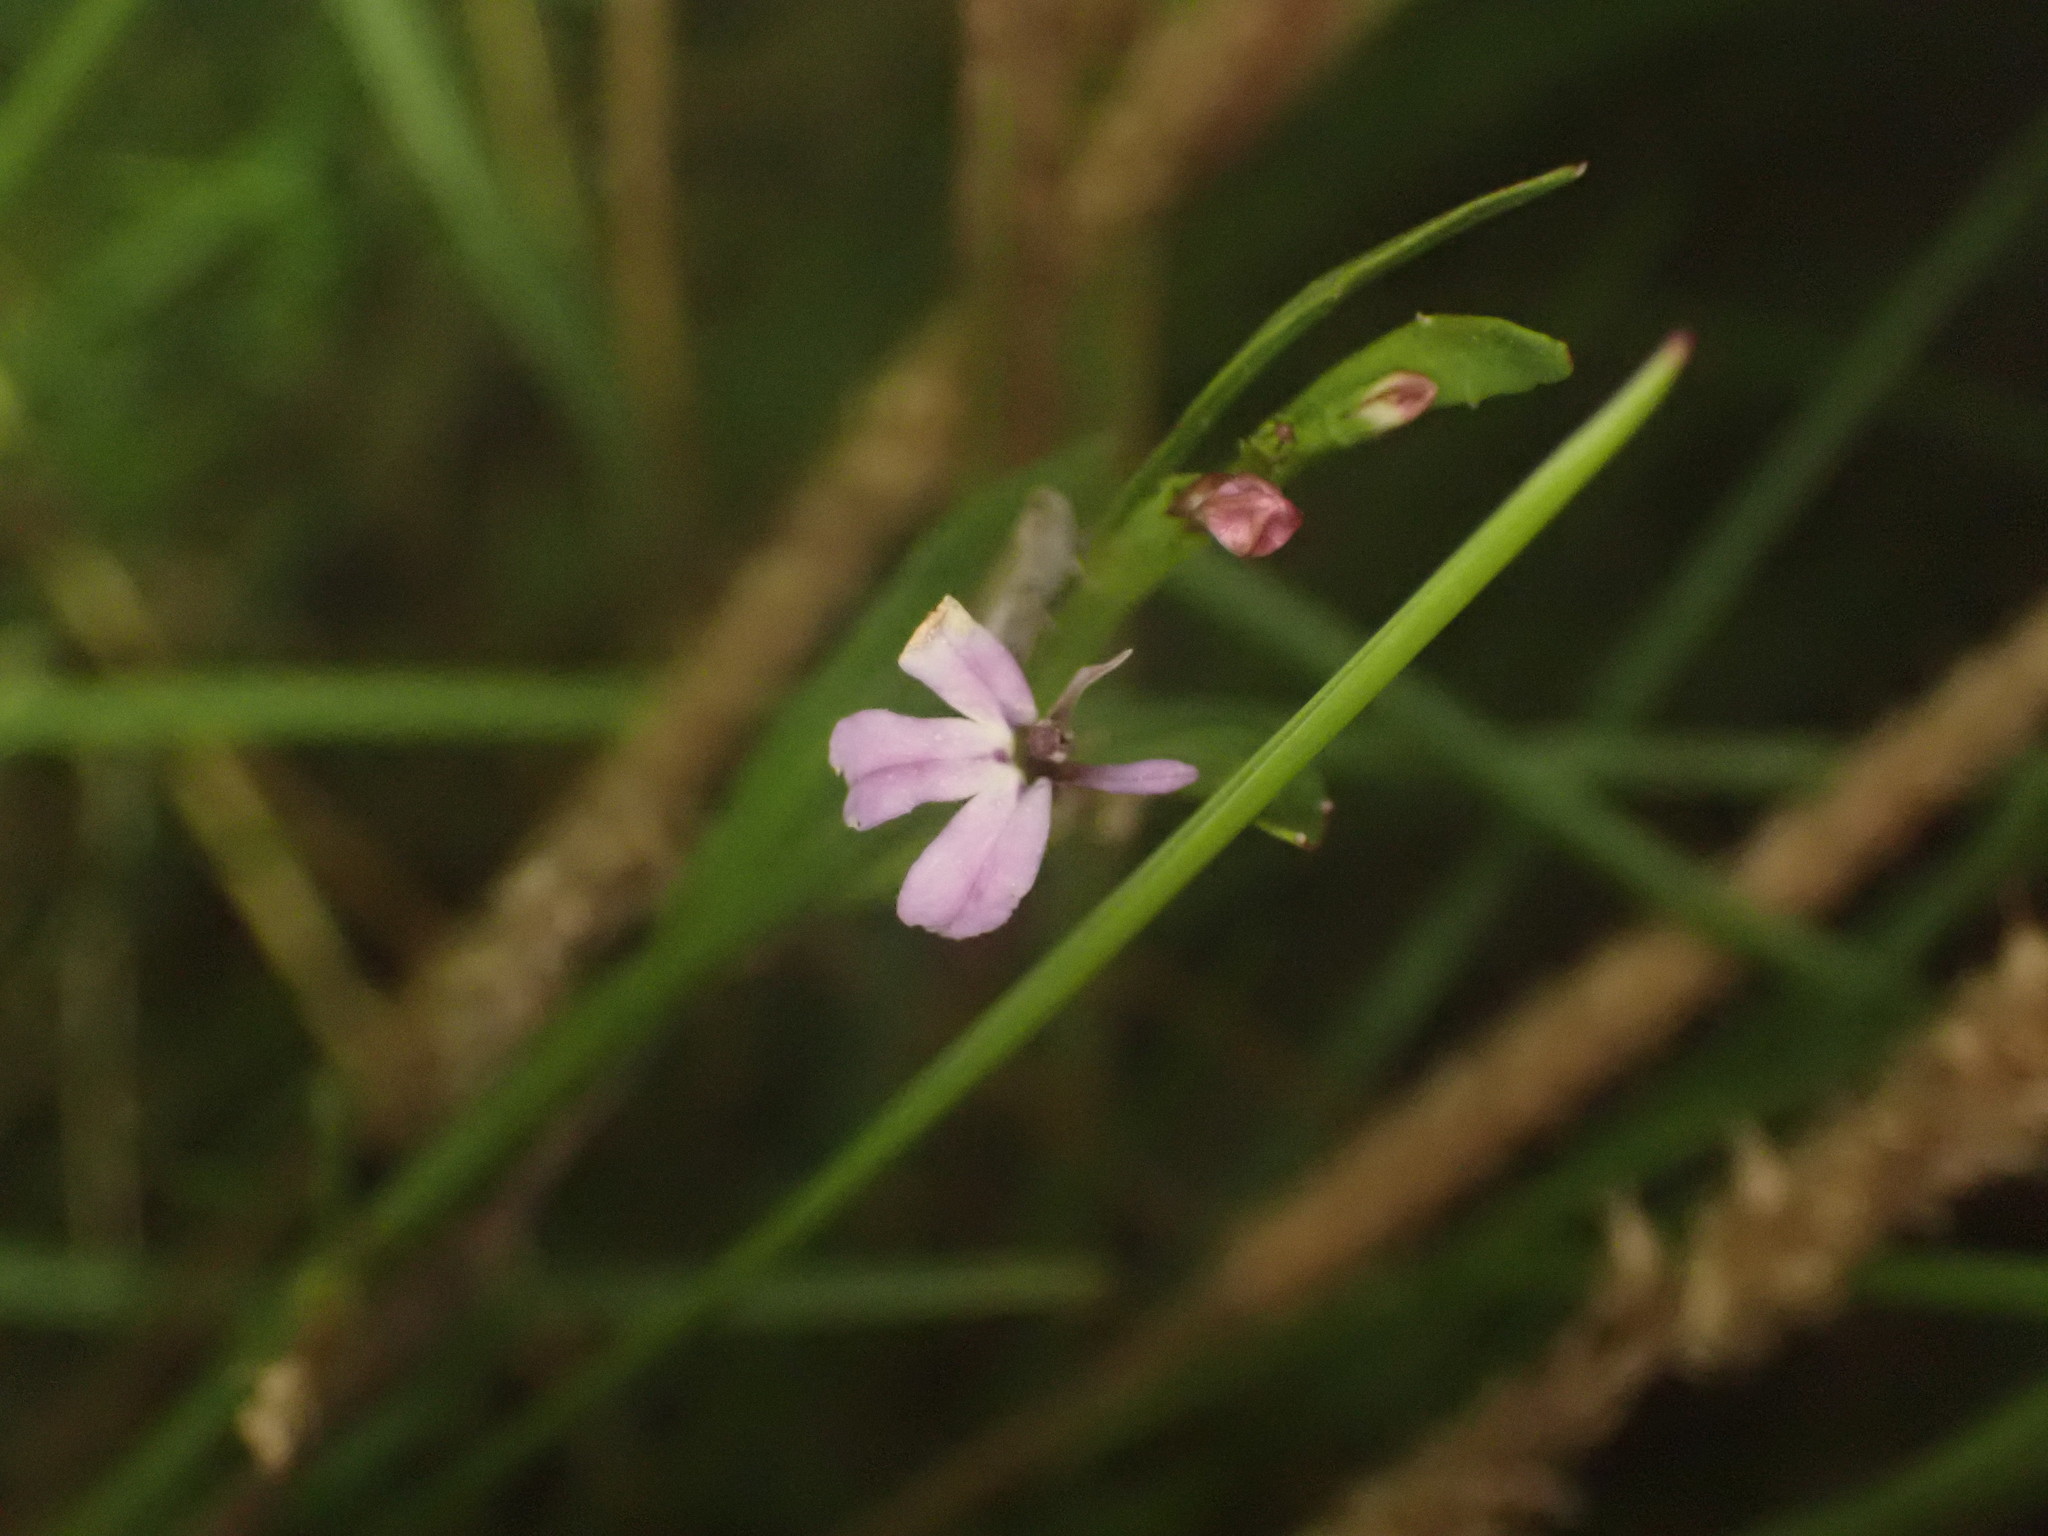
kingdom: Plantae
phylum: Tracheophyta
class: Magnoliopsida
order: Asterales
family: Campanulaceae
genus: Lobelia
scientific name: Lobelia anceps
